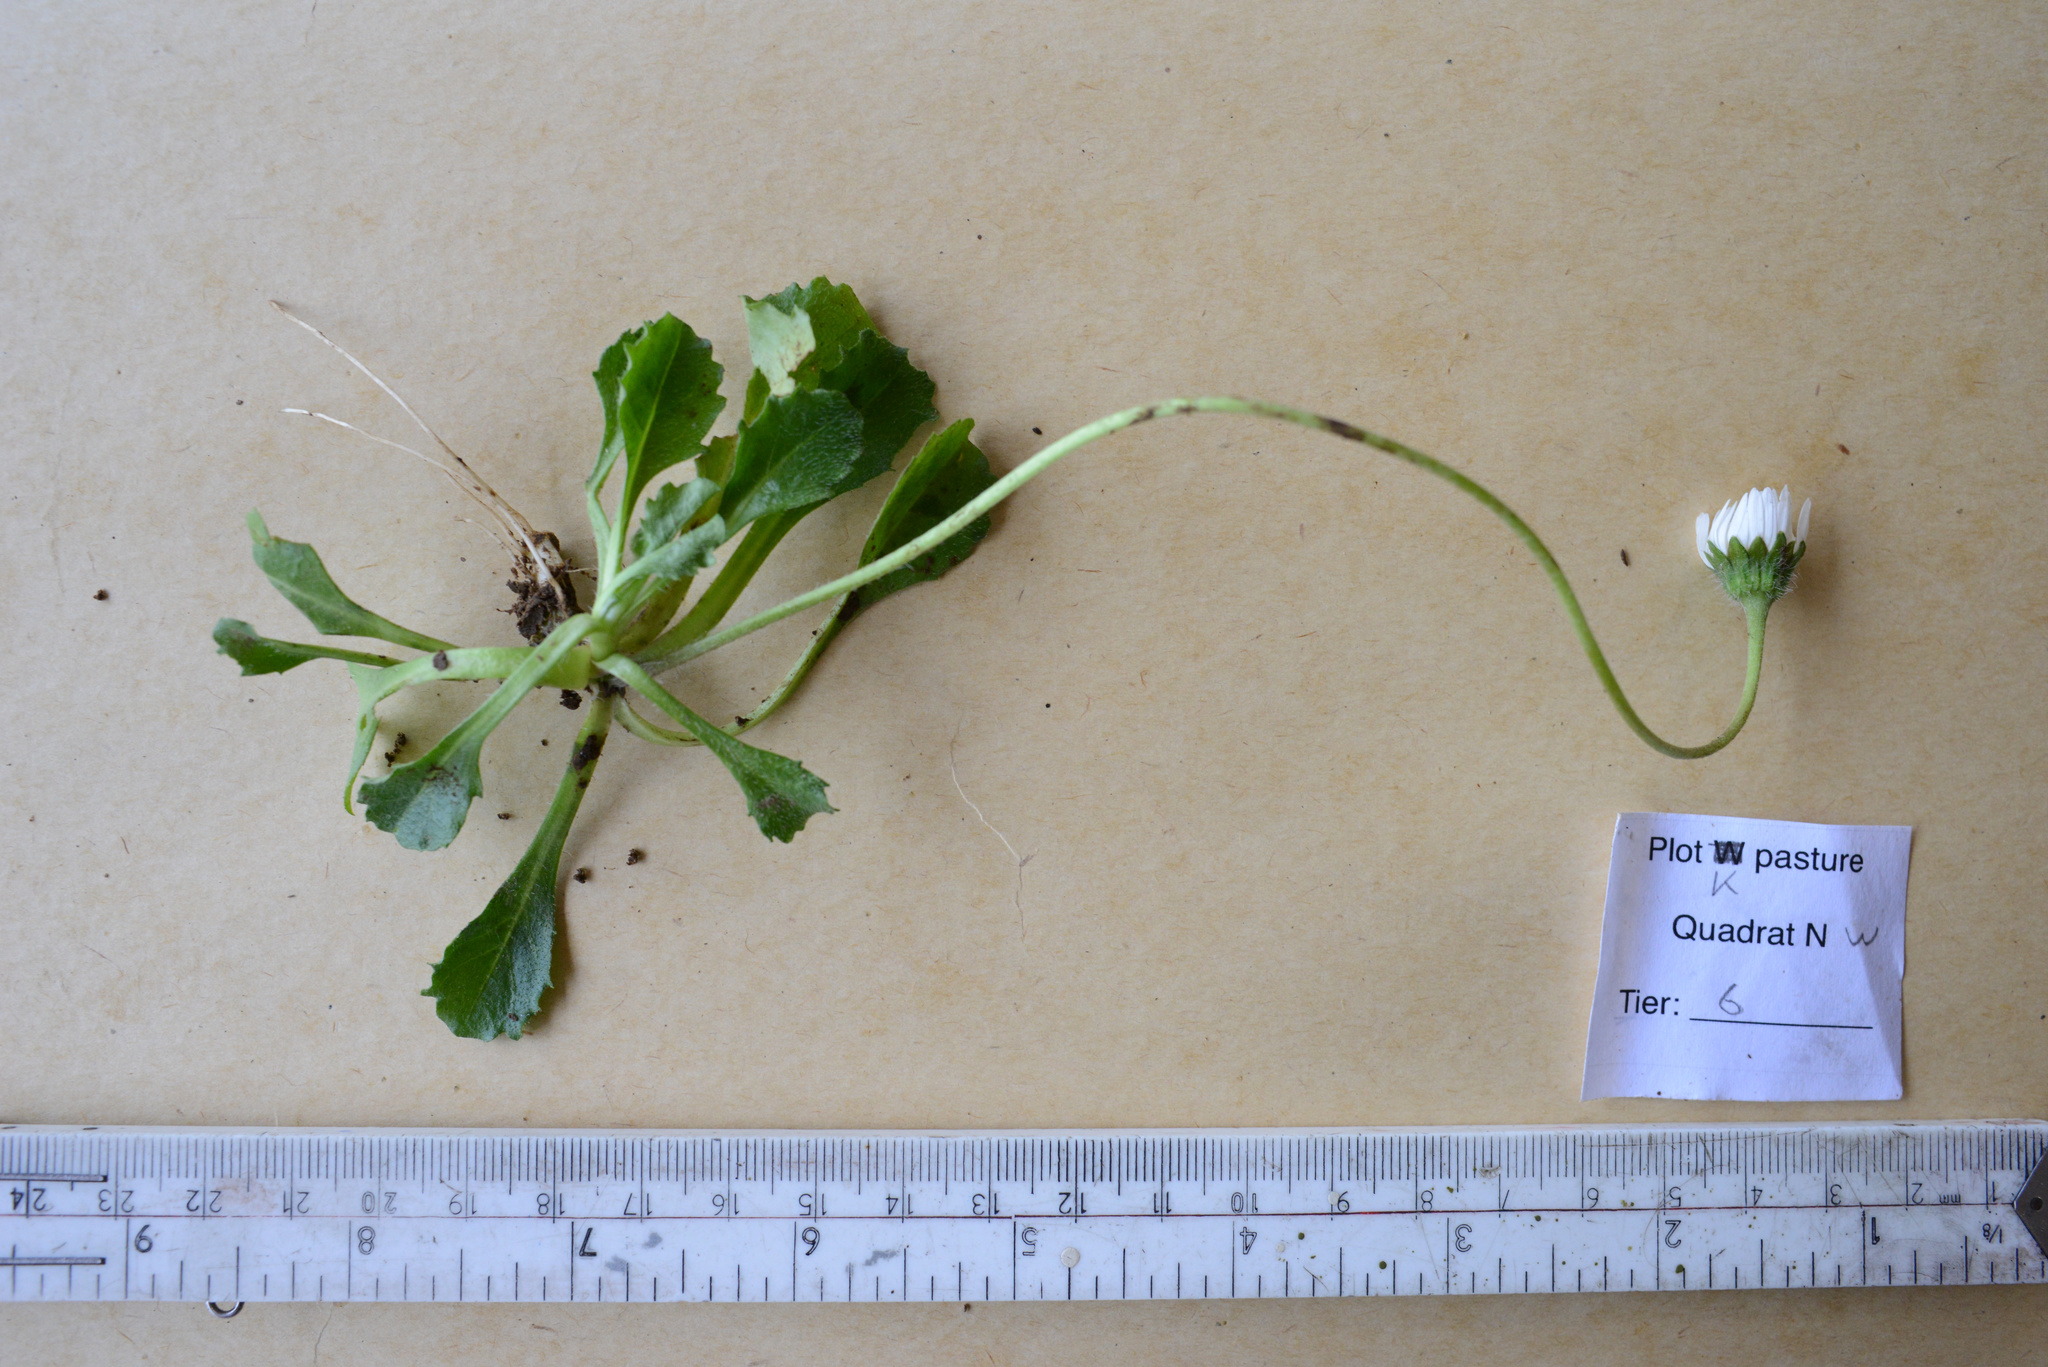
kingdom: Plantae
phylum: Tracheophyta
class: Magnoliopsida
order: Asterales
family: Asteraceae
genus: Bellis
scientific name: Bellis perennis
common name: Lawndaisy
